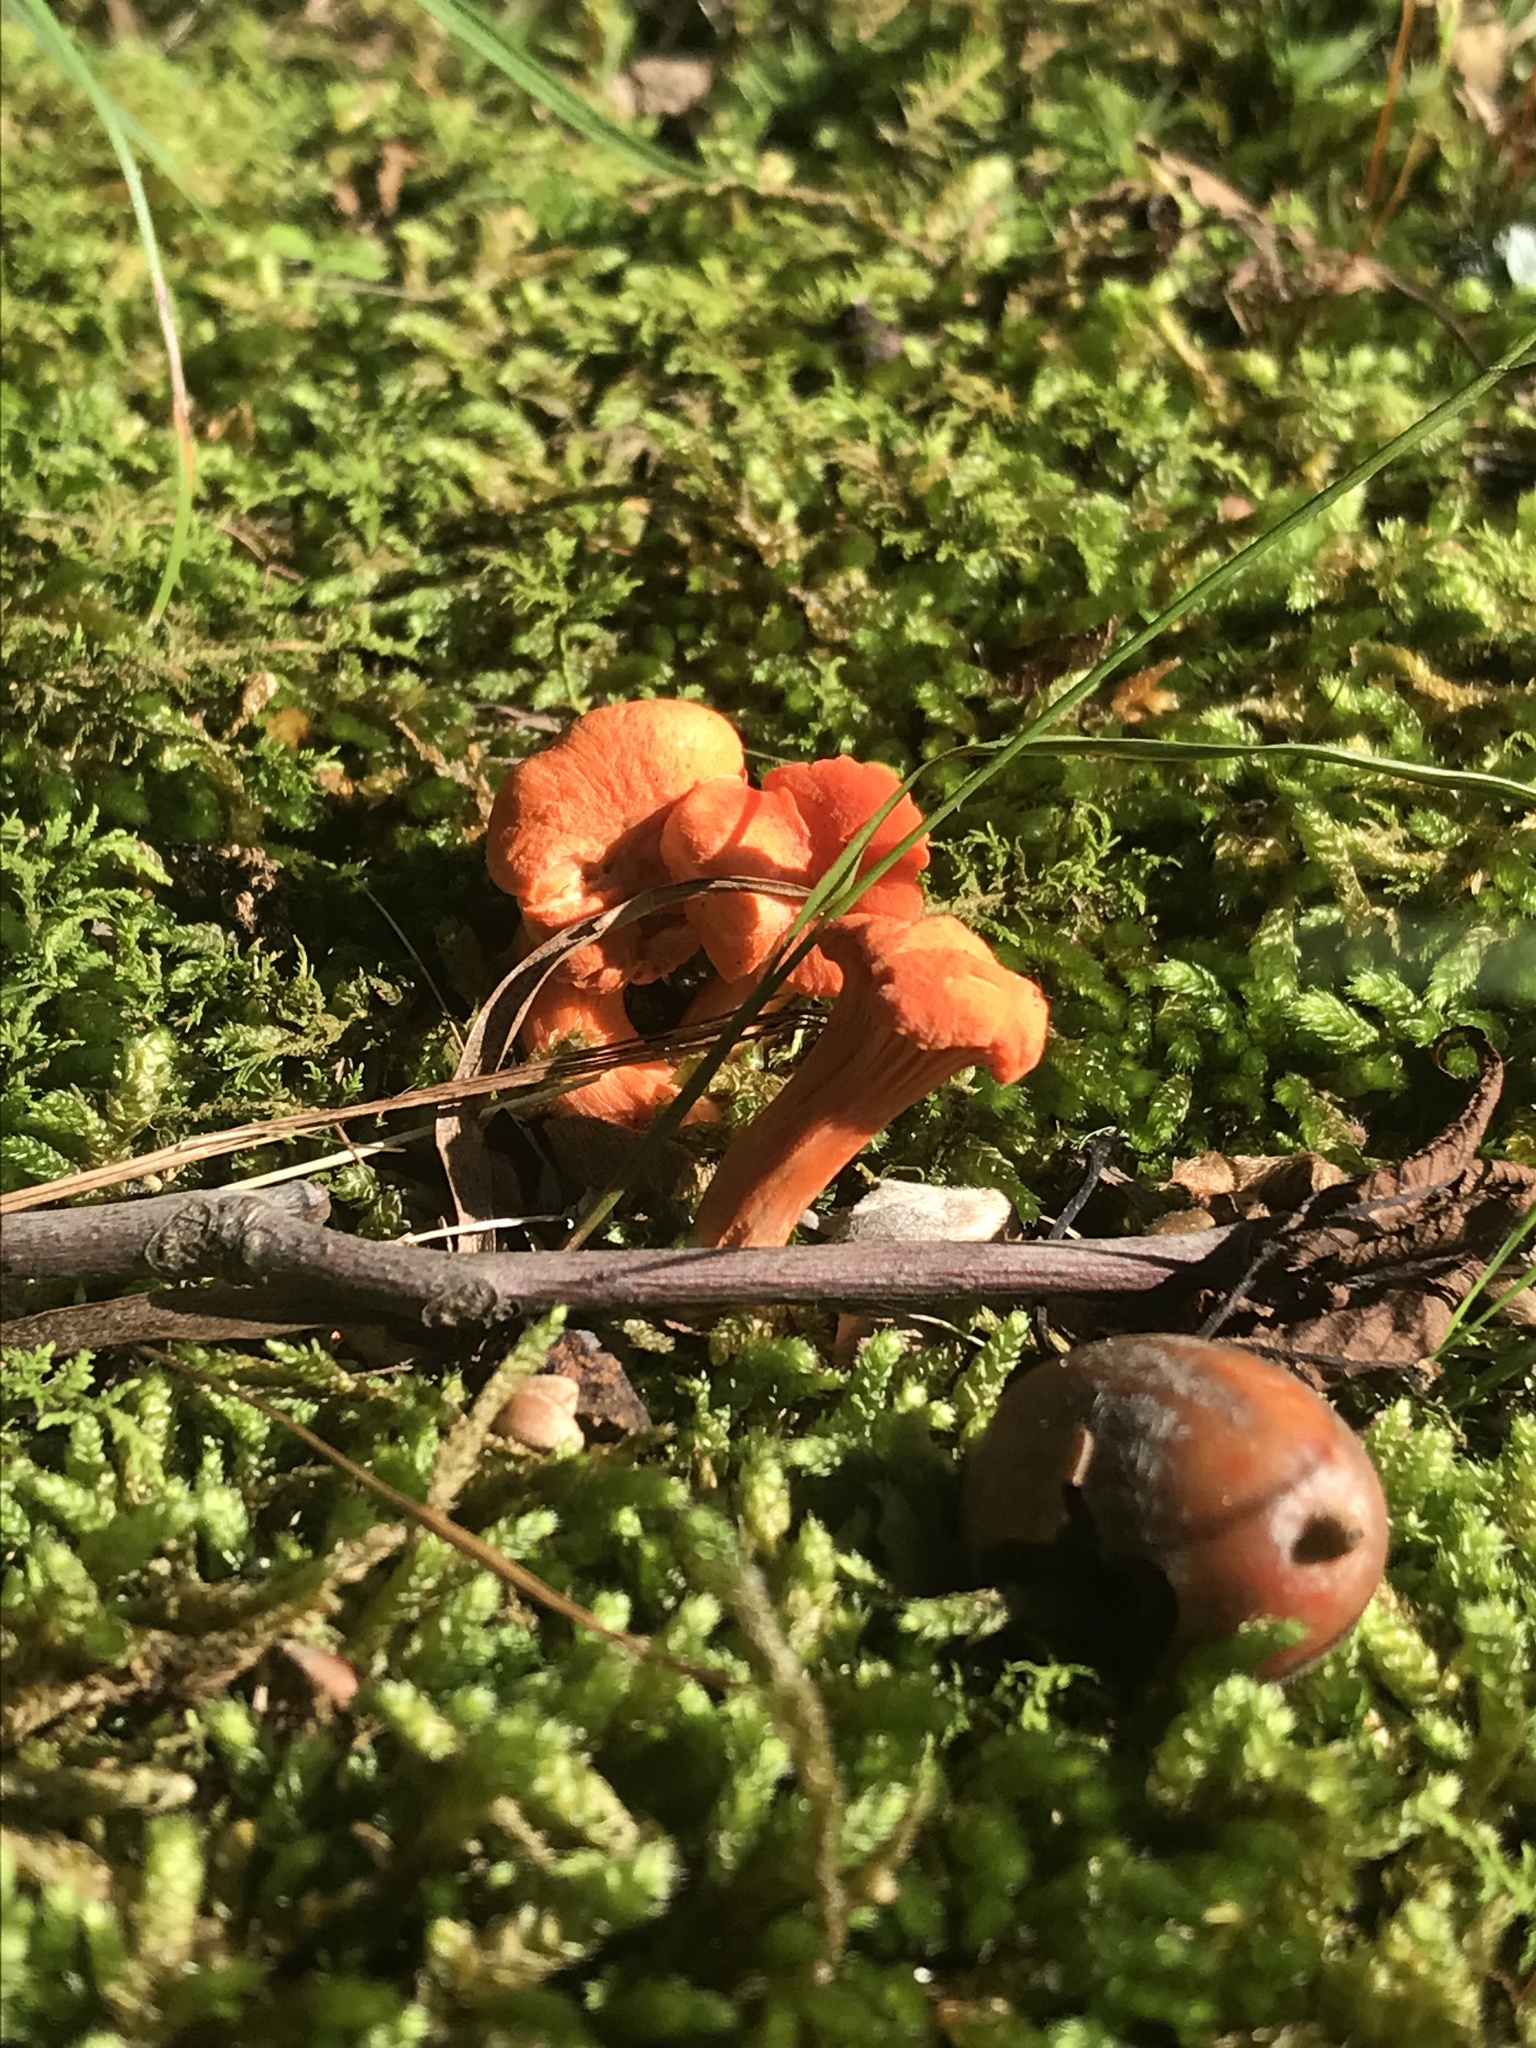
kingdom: Fungi
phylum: Basidiomycota
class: Agaricomycetes
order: Cantharellales
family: Hydnaceae
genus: Cantharellus
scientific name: Cantharellus corallinus
